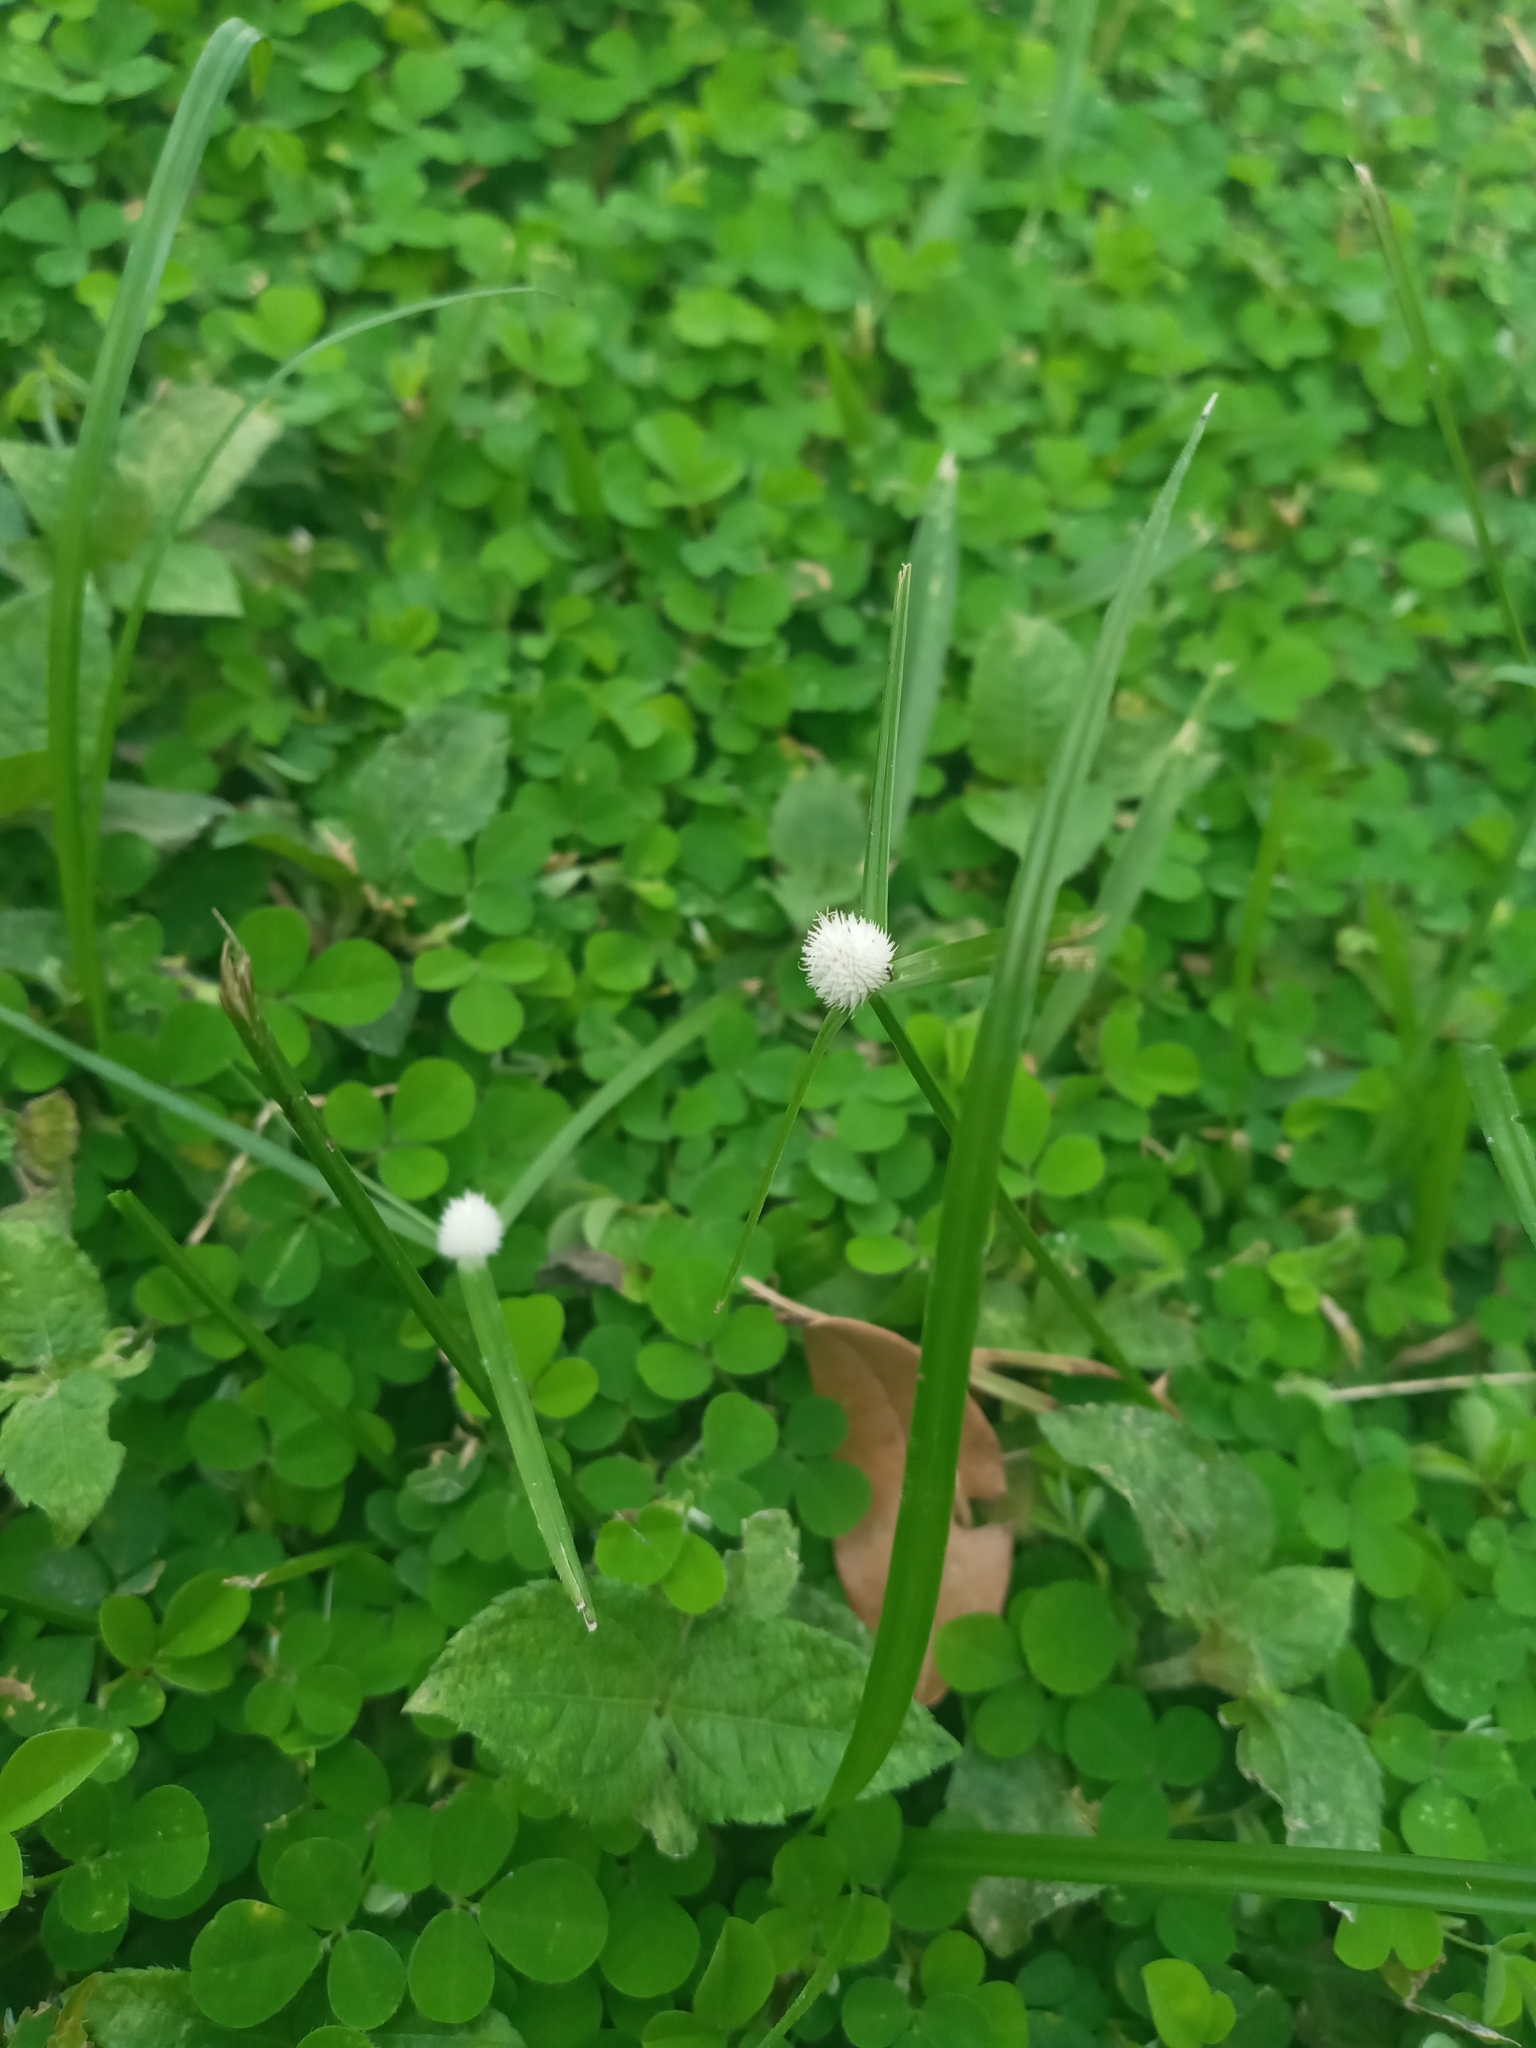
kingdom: Plantae
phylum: Tracheophyta
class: Liliopsida
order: Poales
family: Cyperaceae
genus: Cyperus
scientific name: Cyperus mindorensis
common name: Flatsedge
